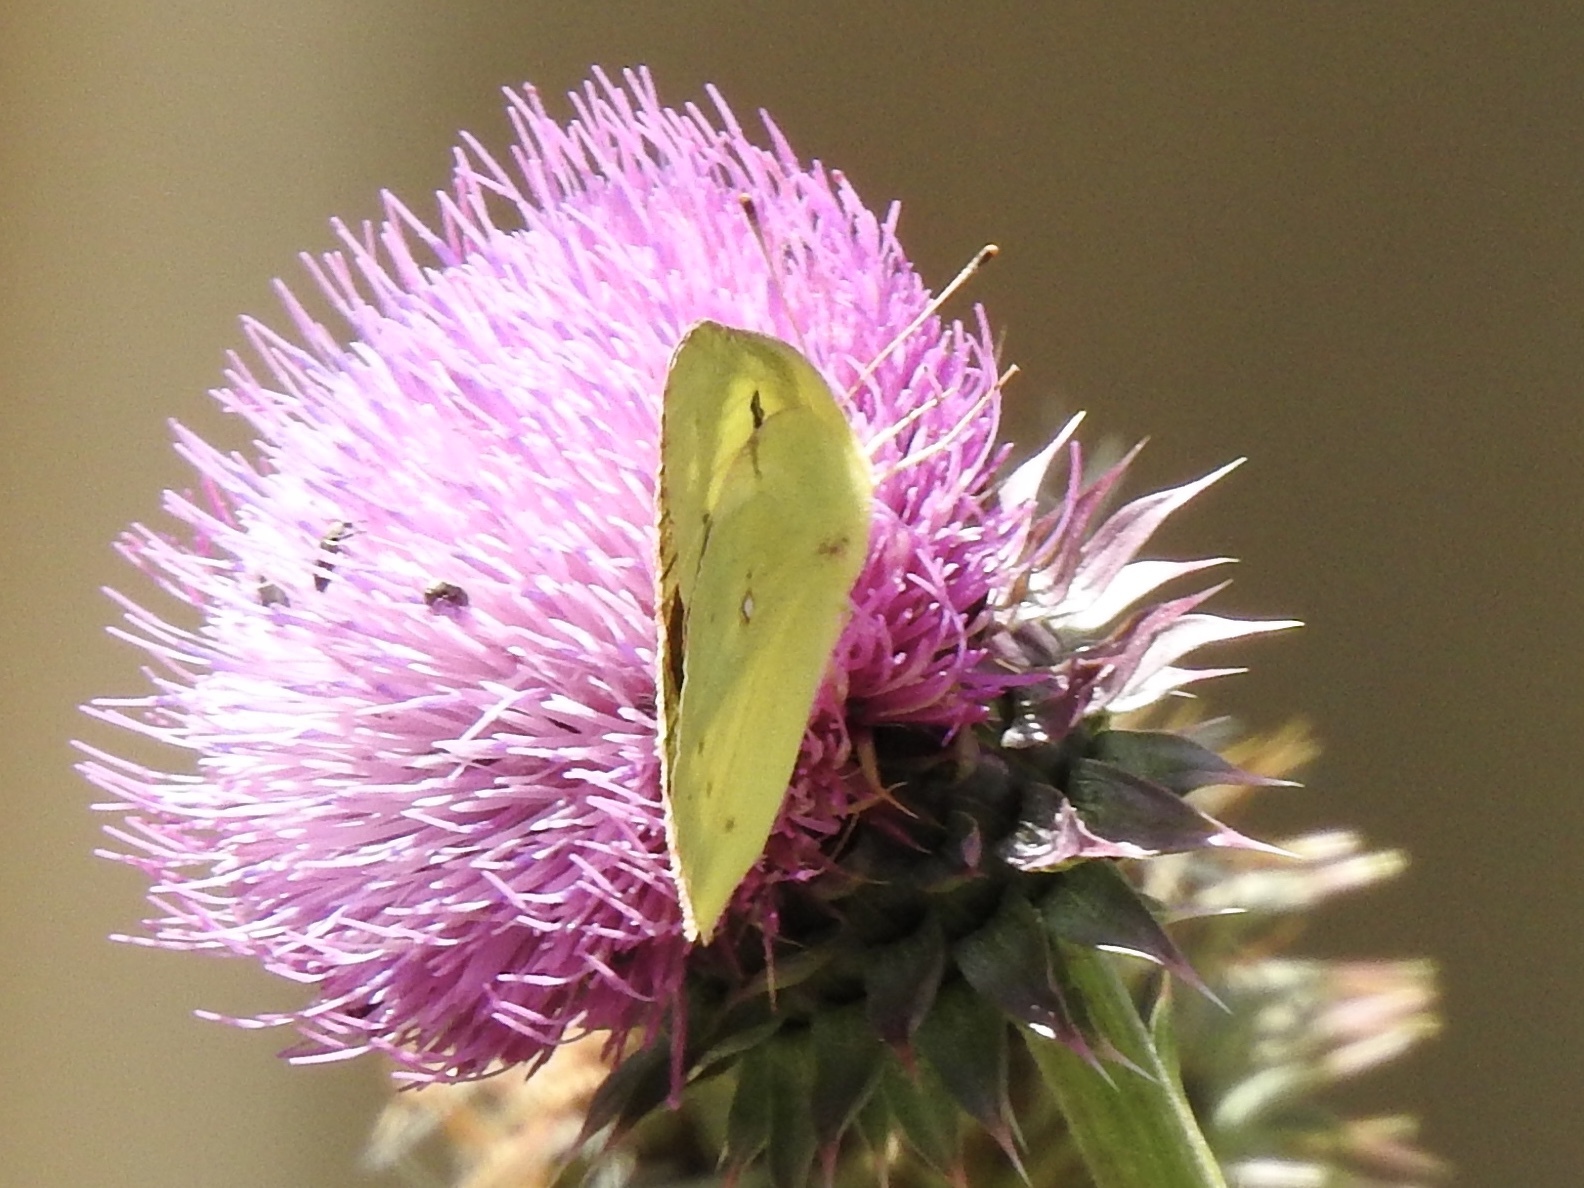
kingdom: Animalia
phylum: Arthropoda
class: Insecta
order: Lepidoptera
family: Pieridae
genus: Colias
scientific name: Colias eurytheme
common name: Alfalfa butterfly
